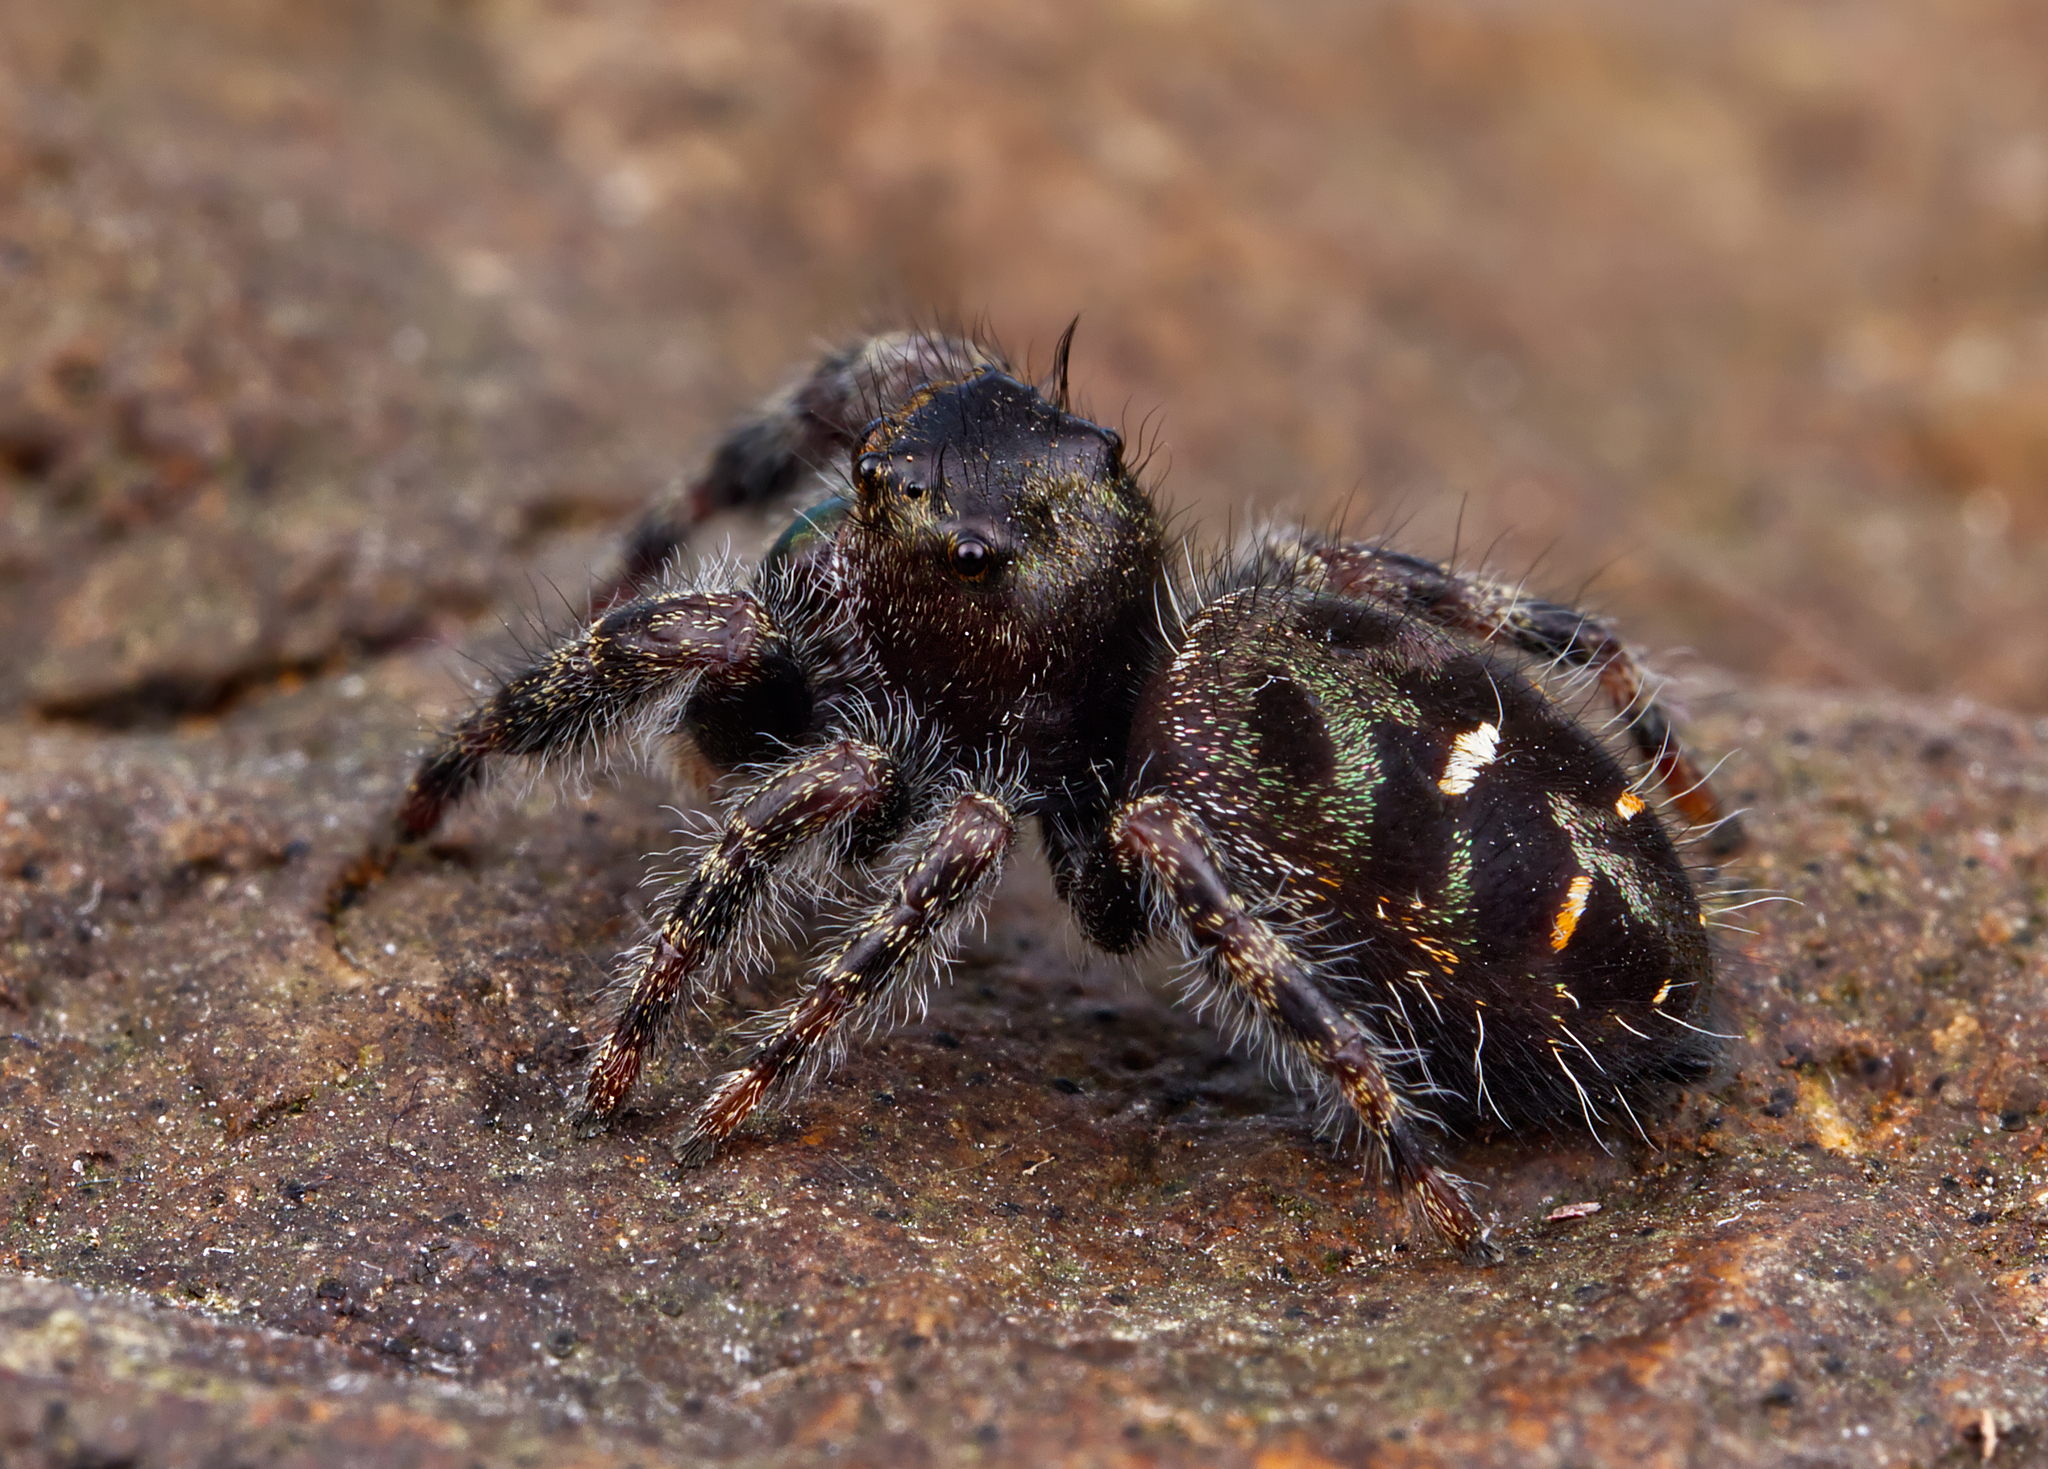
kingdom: Animalia
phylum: Arthropoda
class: Arachnida
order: Araneae
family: Salticidae
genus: Phidippus
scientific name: Phidippus audax
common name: Bold jumper
